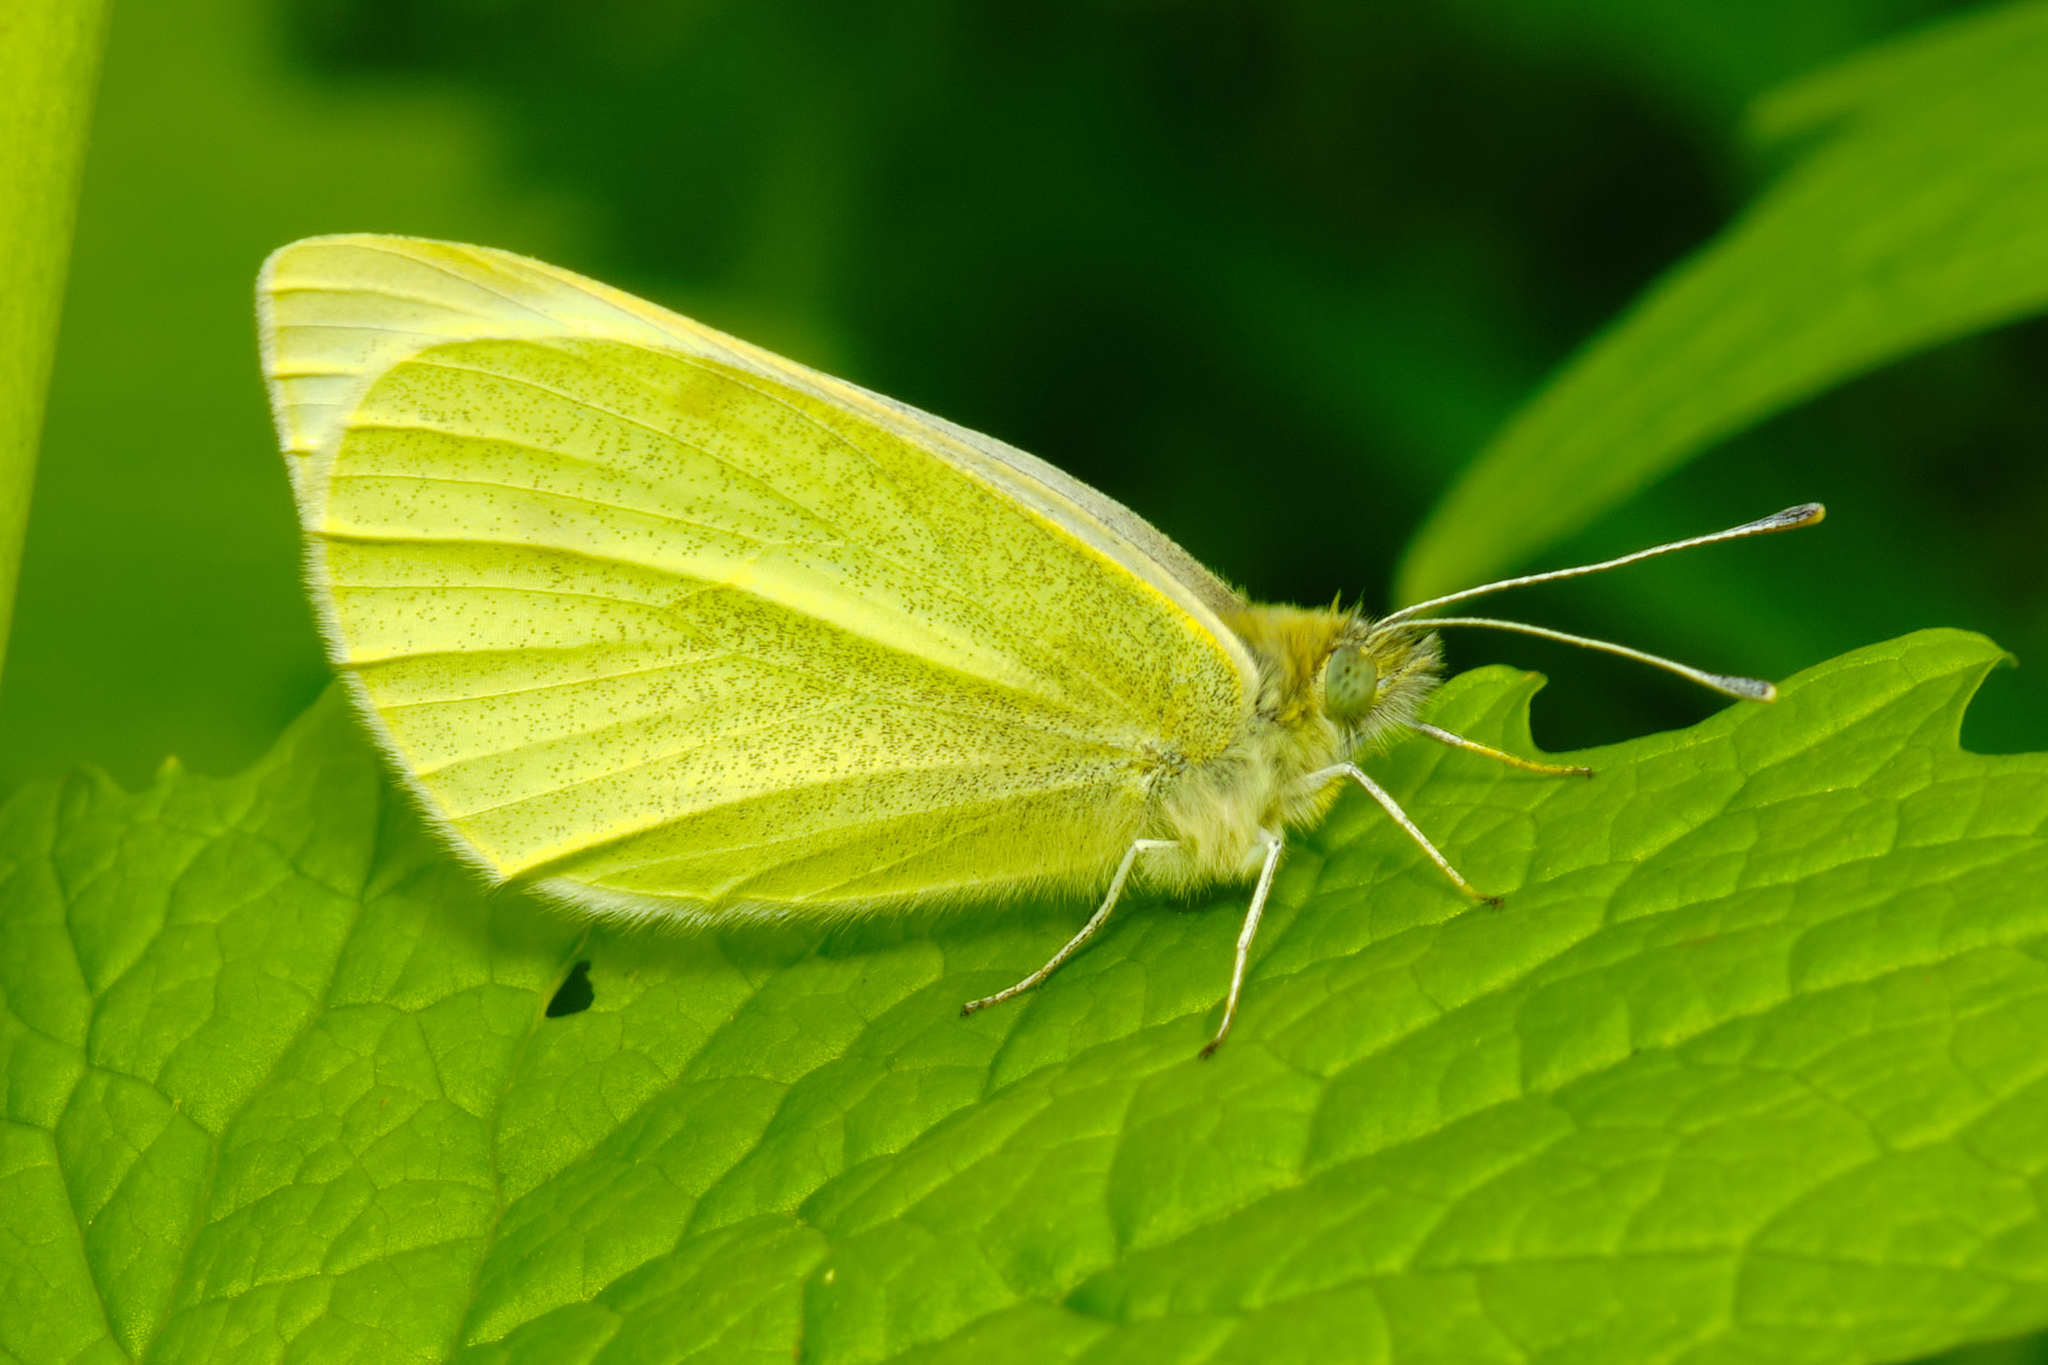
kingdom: Animalia
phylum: Arthropoda
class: Insecta
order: Lepidoptera
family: Pieridae
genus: Pieris
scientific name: Pieris rapae
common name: Small white
